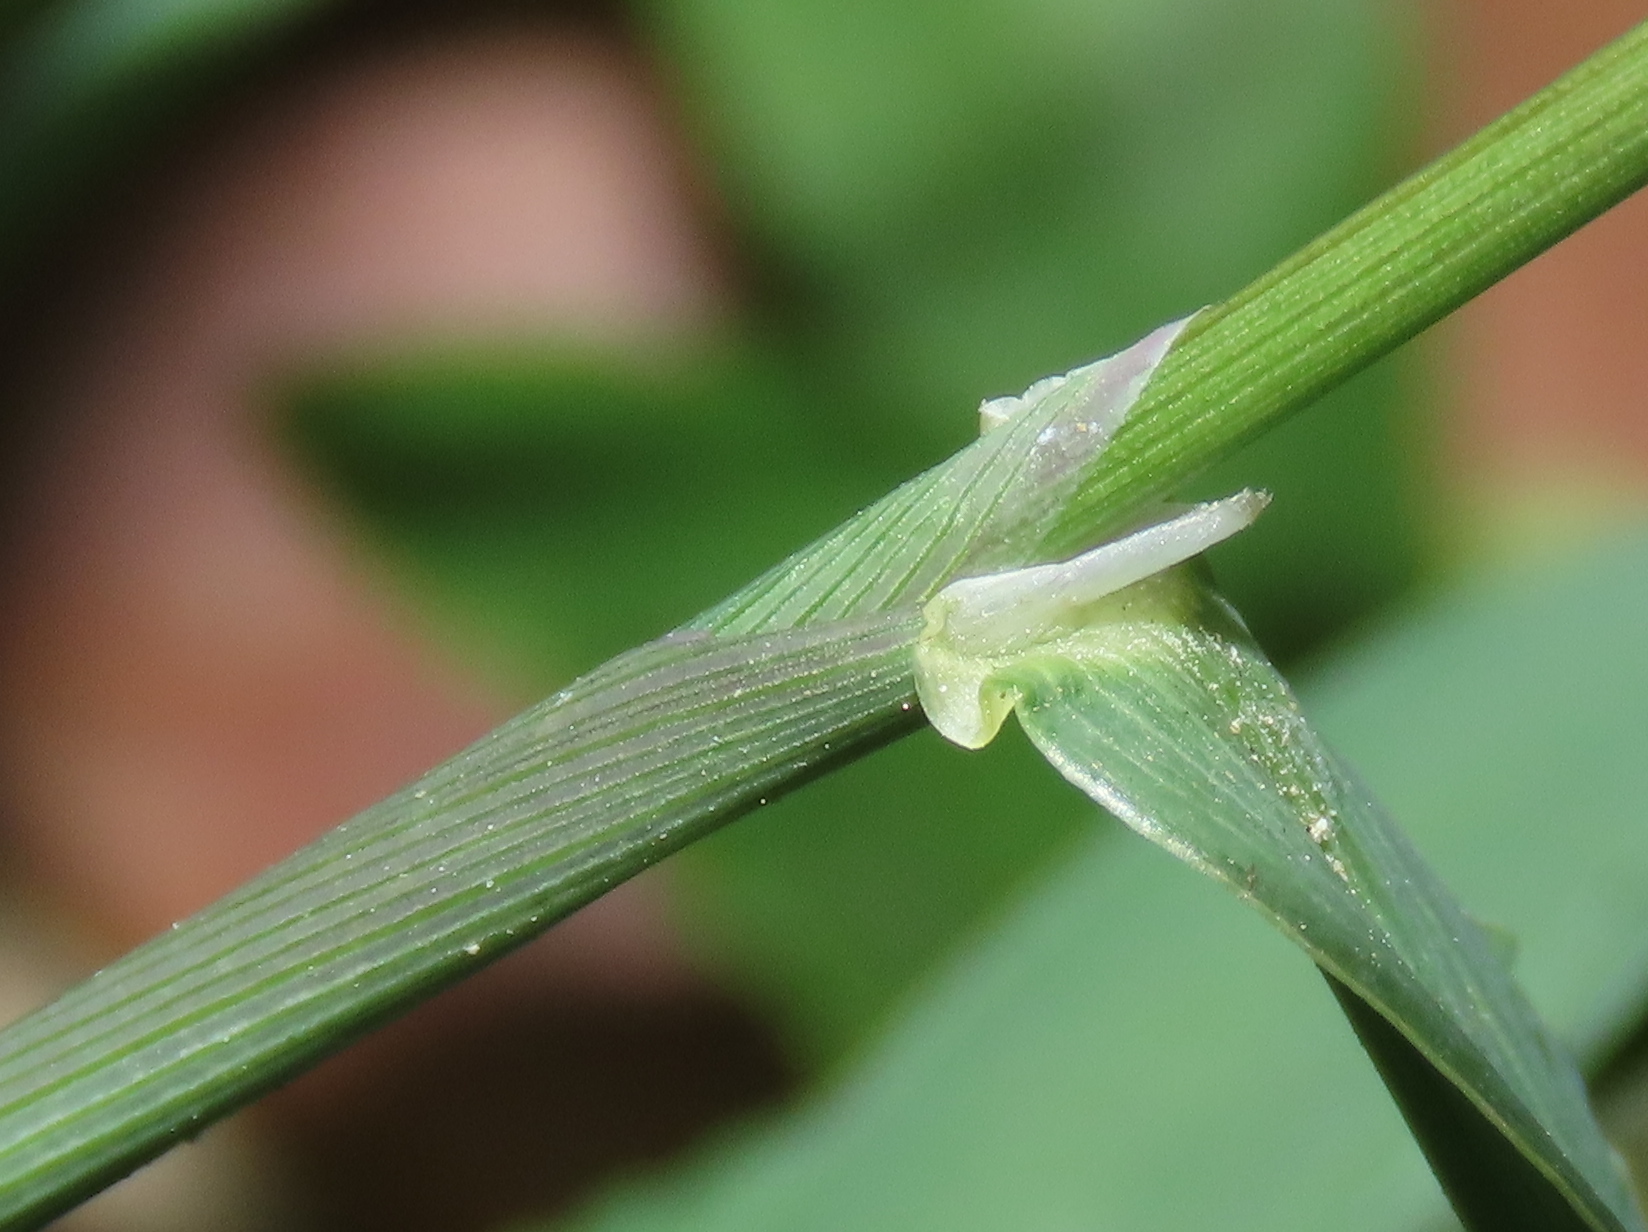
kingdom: Plantae
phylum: Tracheophyta
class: Liliopsida
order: Poales
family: Poaceae
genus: Digitaria
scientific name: Digitaria ciliaris
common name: Tropical finger-grass
